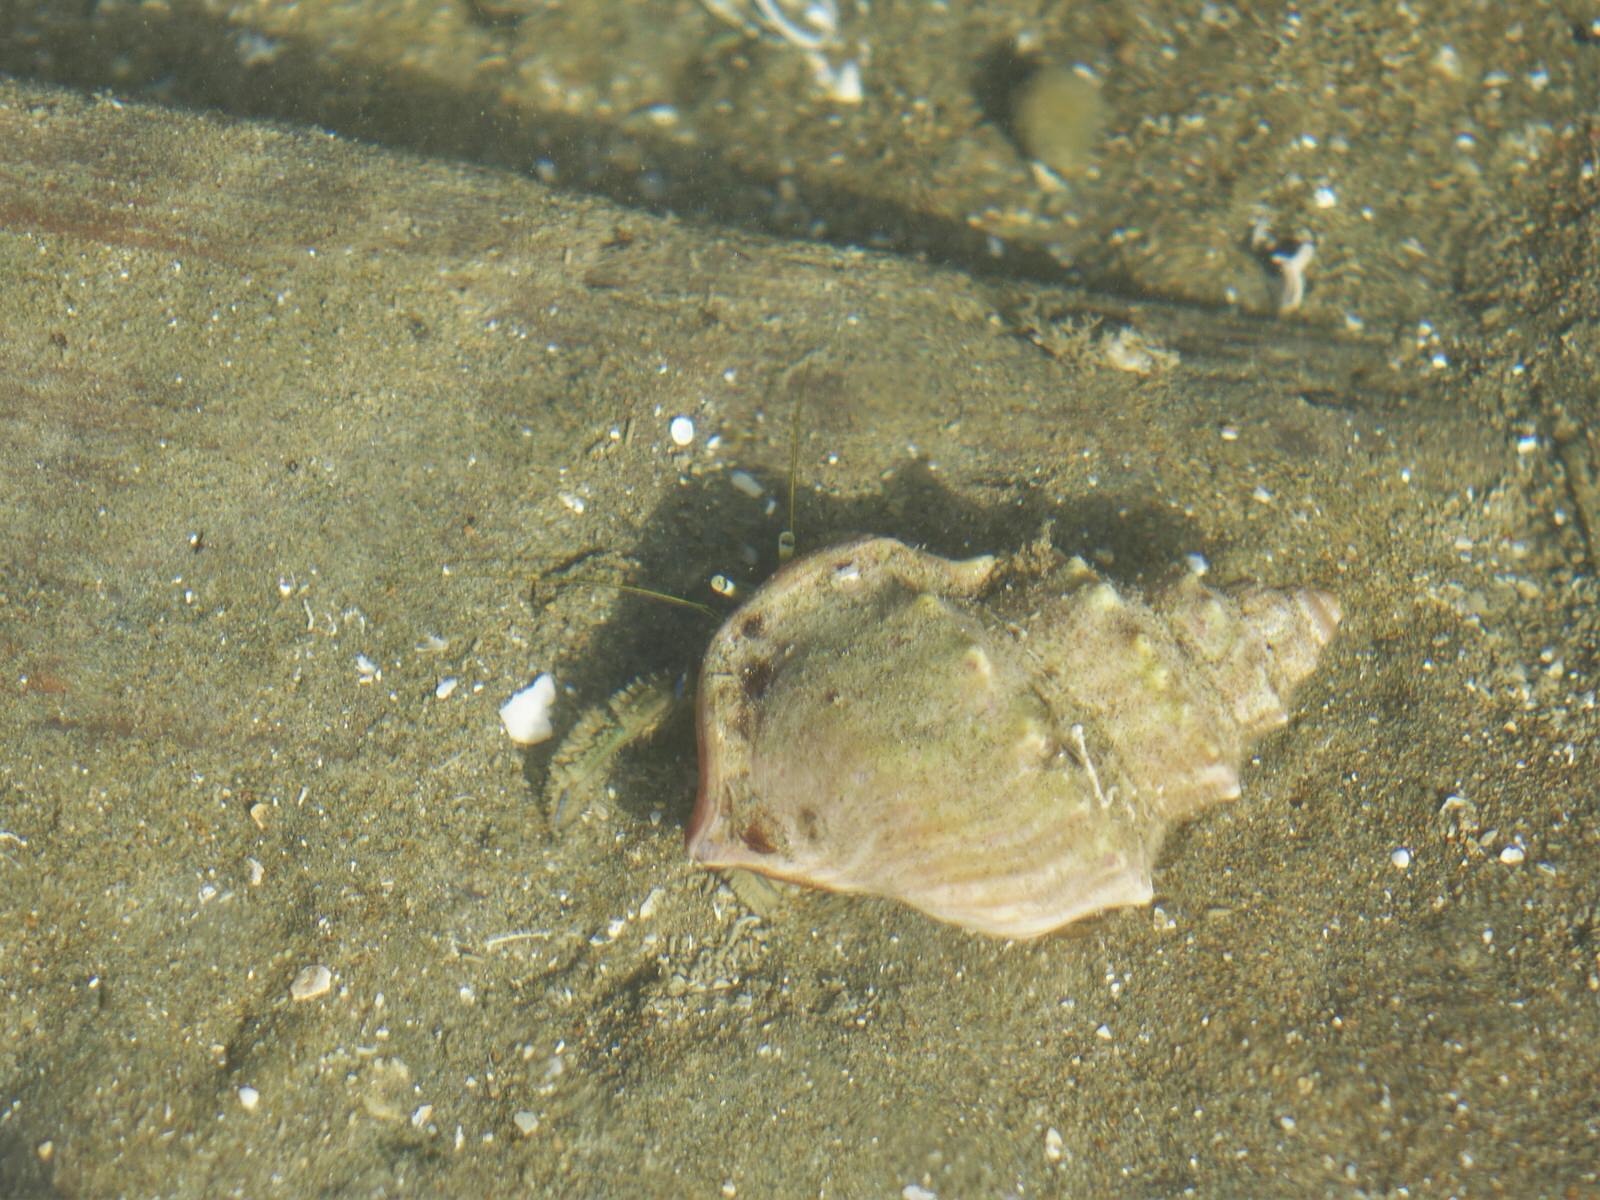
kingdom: Animalia
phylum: Arthropoda
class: Malacostraca
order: Decapoda
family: Paguridae
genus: Pagurus
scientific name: Pagurus novizealandiae
